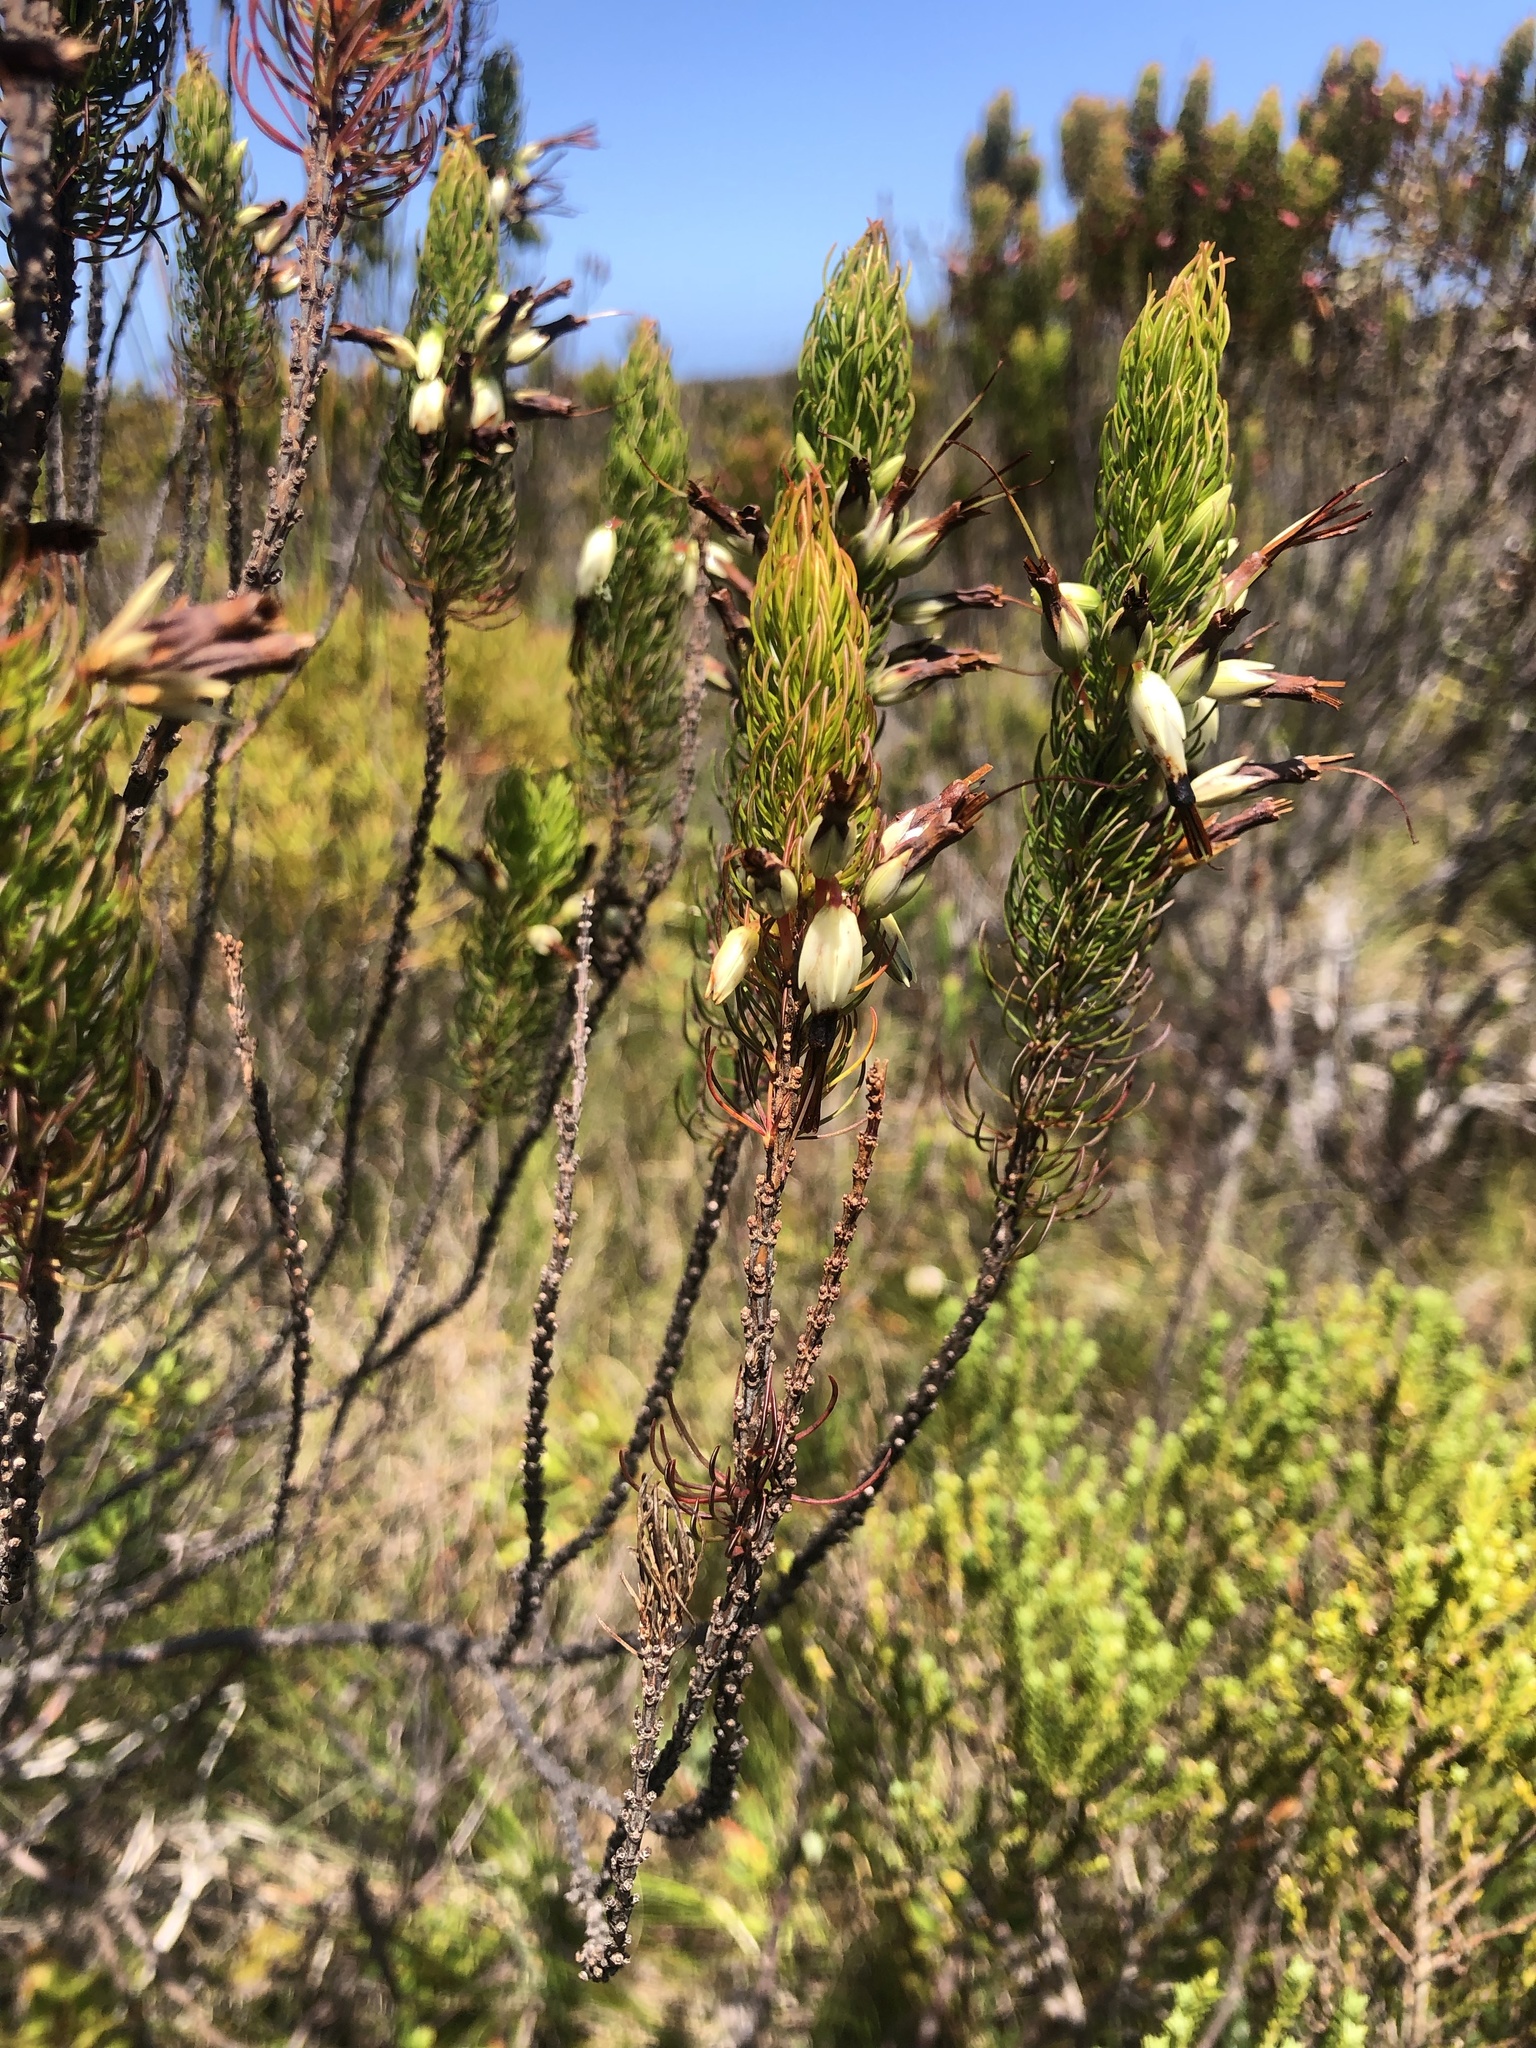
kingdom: Plantae
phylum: Tracheophyta
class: Magnoliopsida
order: Ericales
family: Ericaceae
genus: Erica
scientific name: Erica plukenetii
